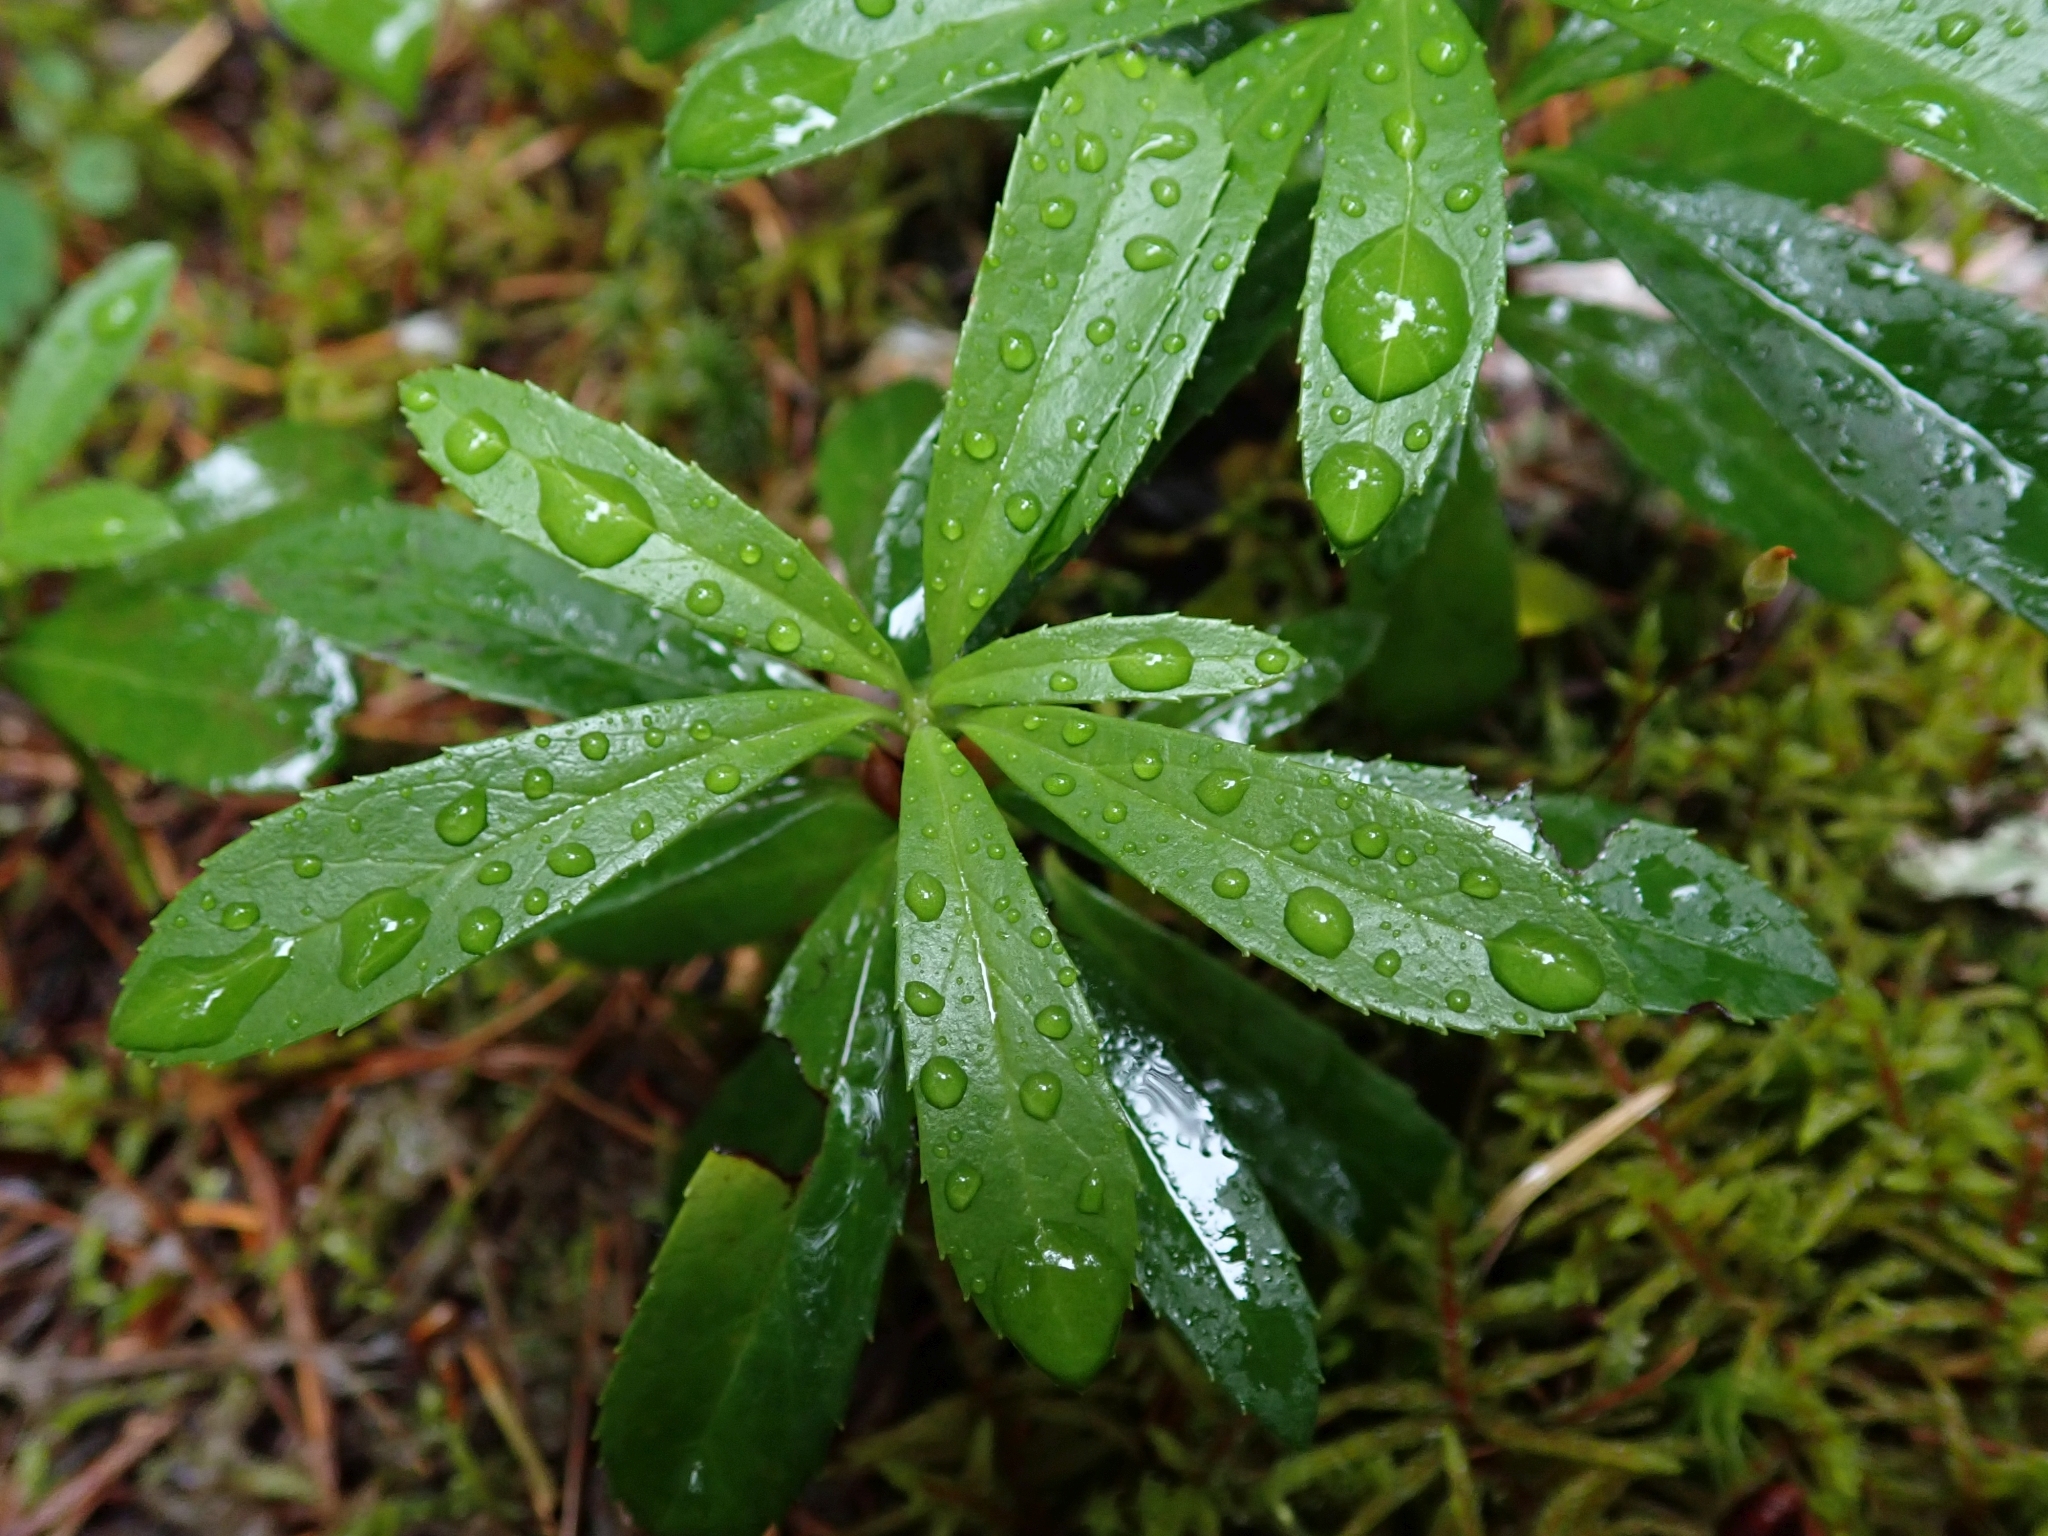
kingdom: Plantae
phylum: Tracheophyta
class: Magnoliopsida
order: Ericales
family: Ericaceae
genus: Chimaphila
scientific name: Chimaphila umbellata
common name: Pipsissewa
